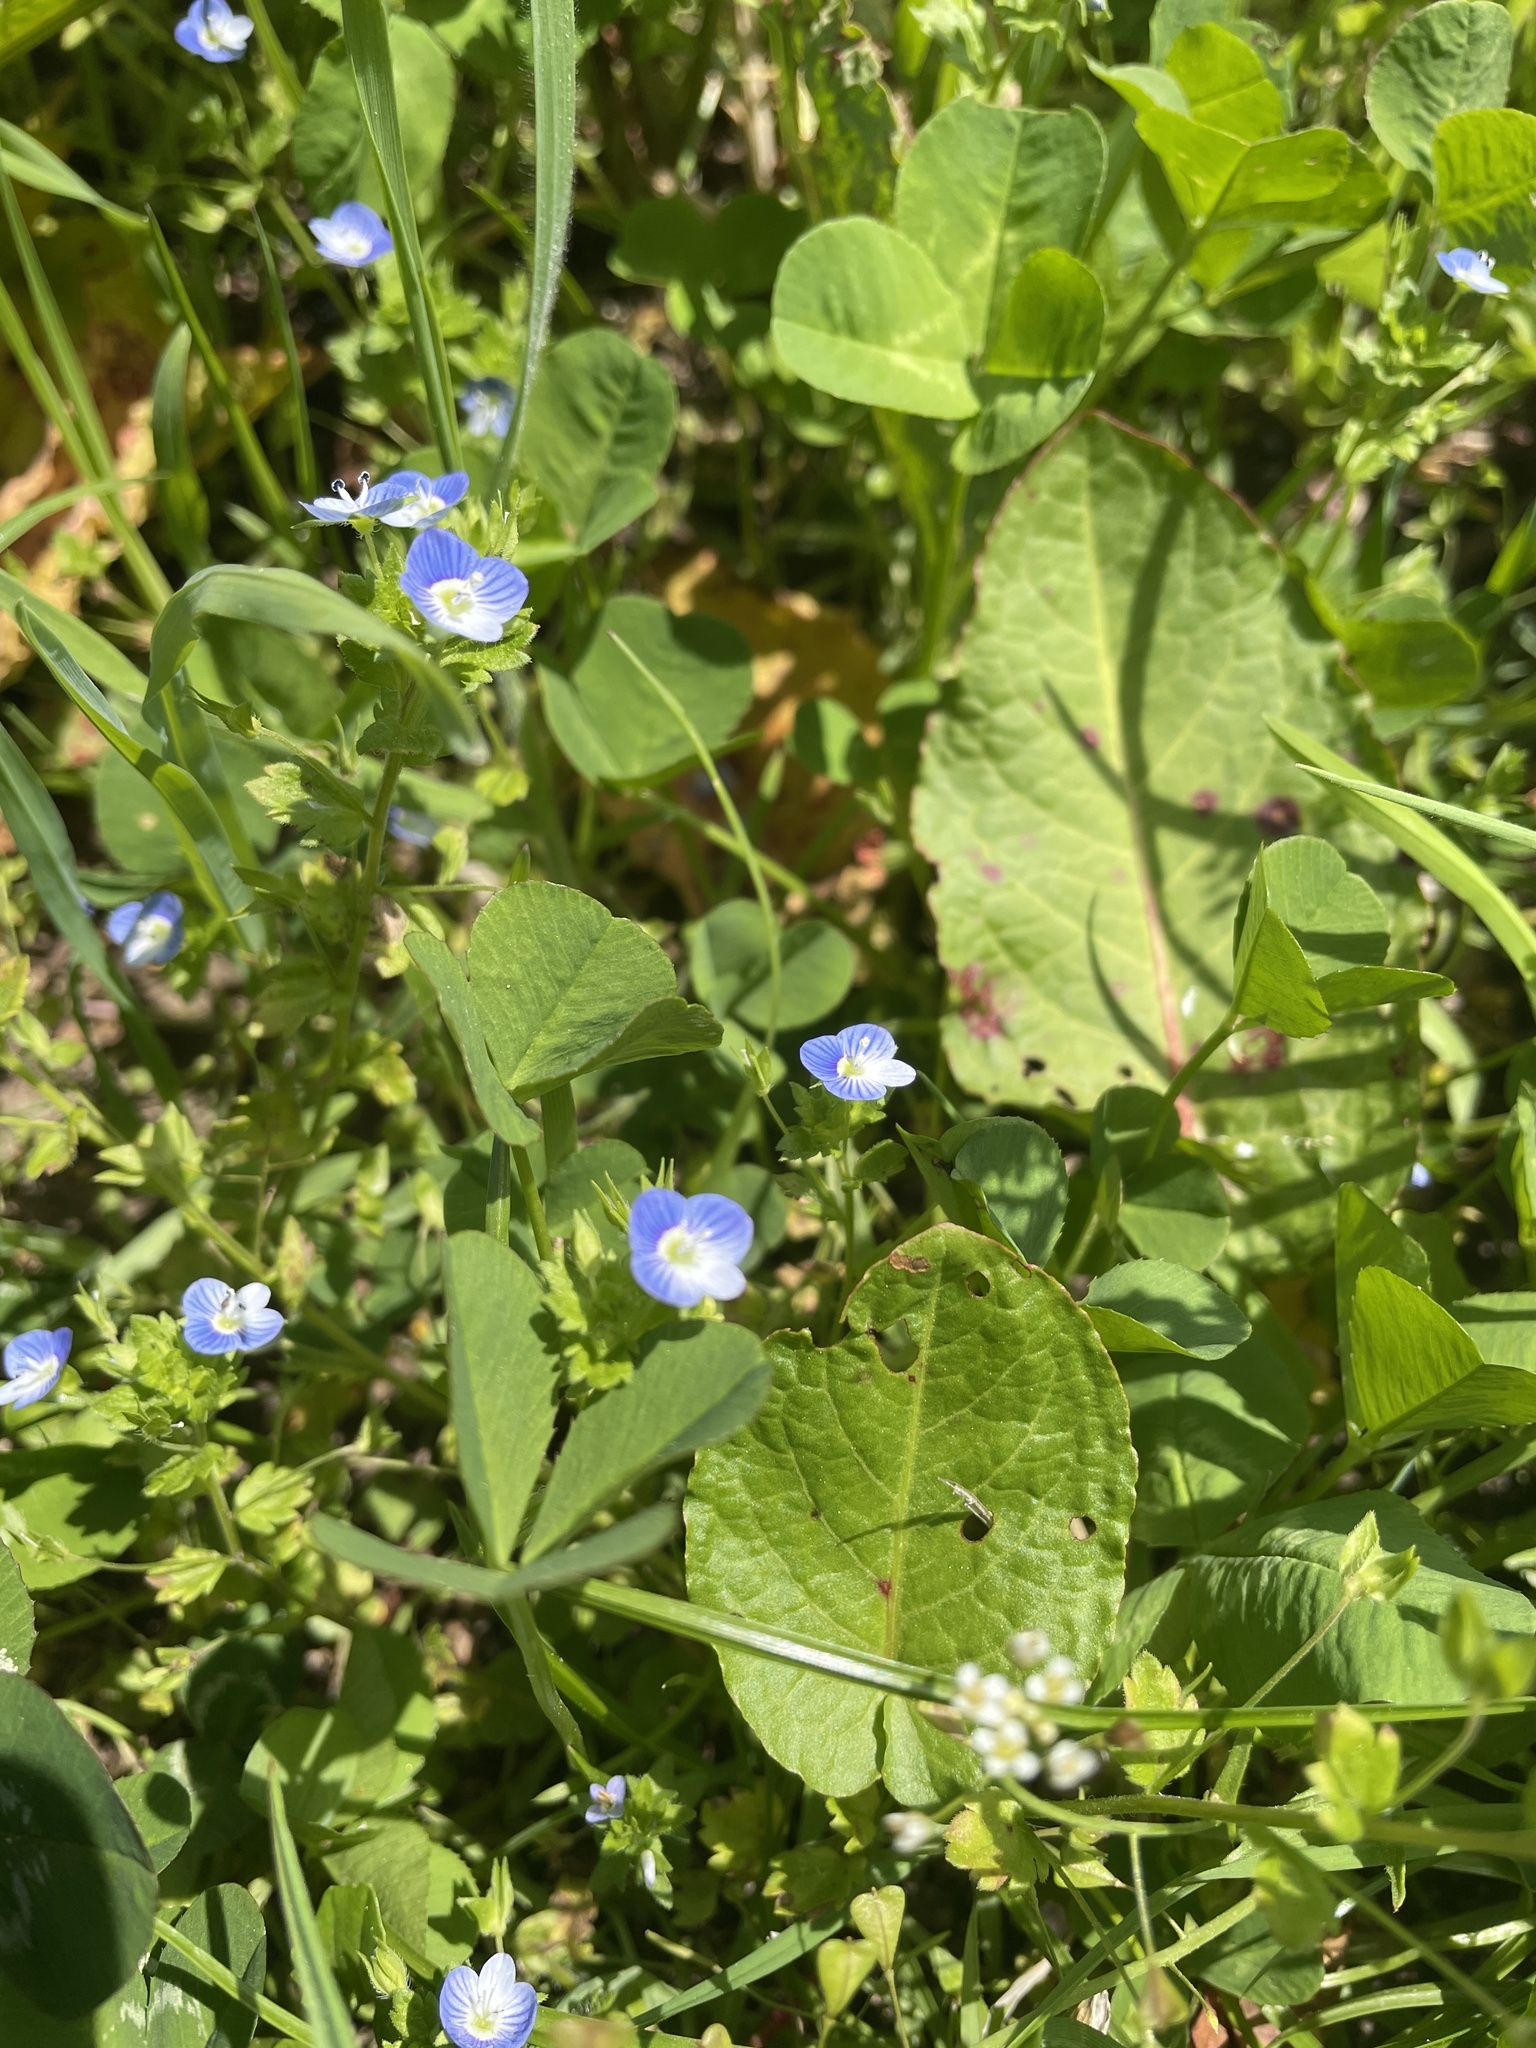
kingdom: Plantae
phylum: Tracheophyta
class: Magnoliopsida
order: Lamiales
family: Plantaginaceae
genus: Veronica
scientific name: Veronica persica
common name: Common field-speedwell
